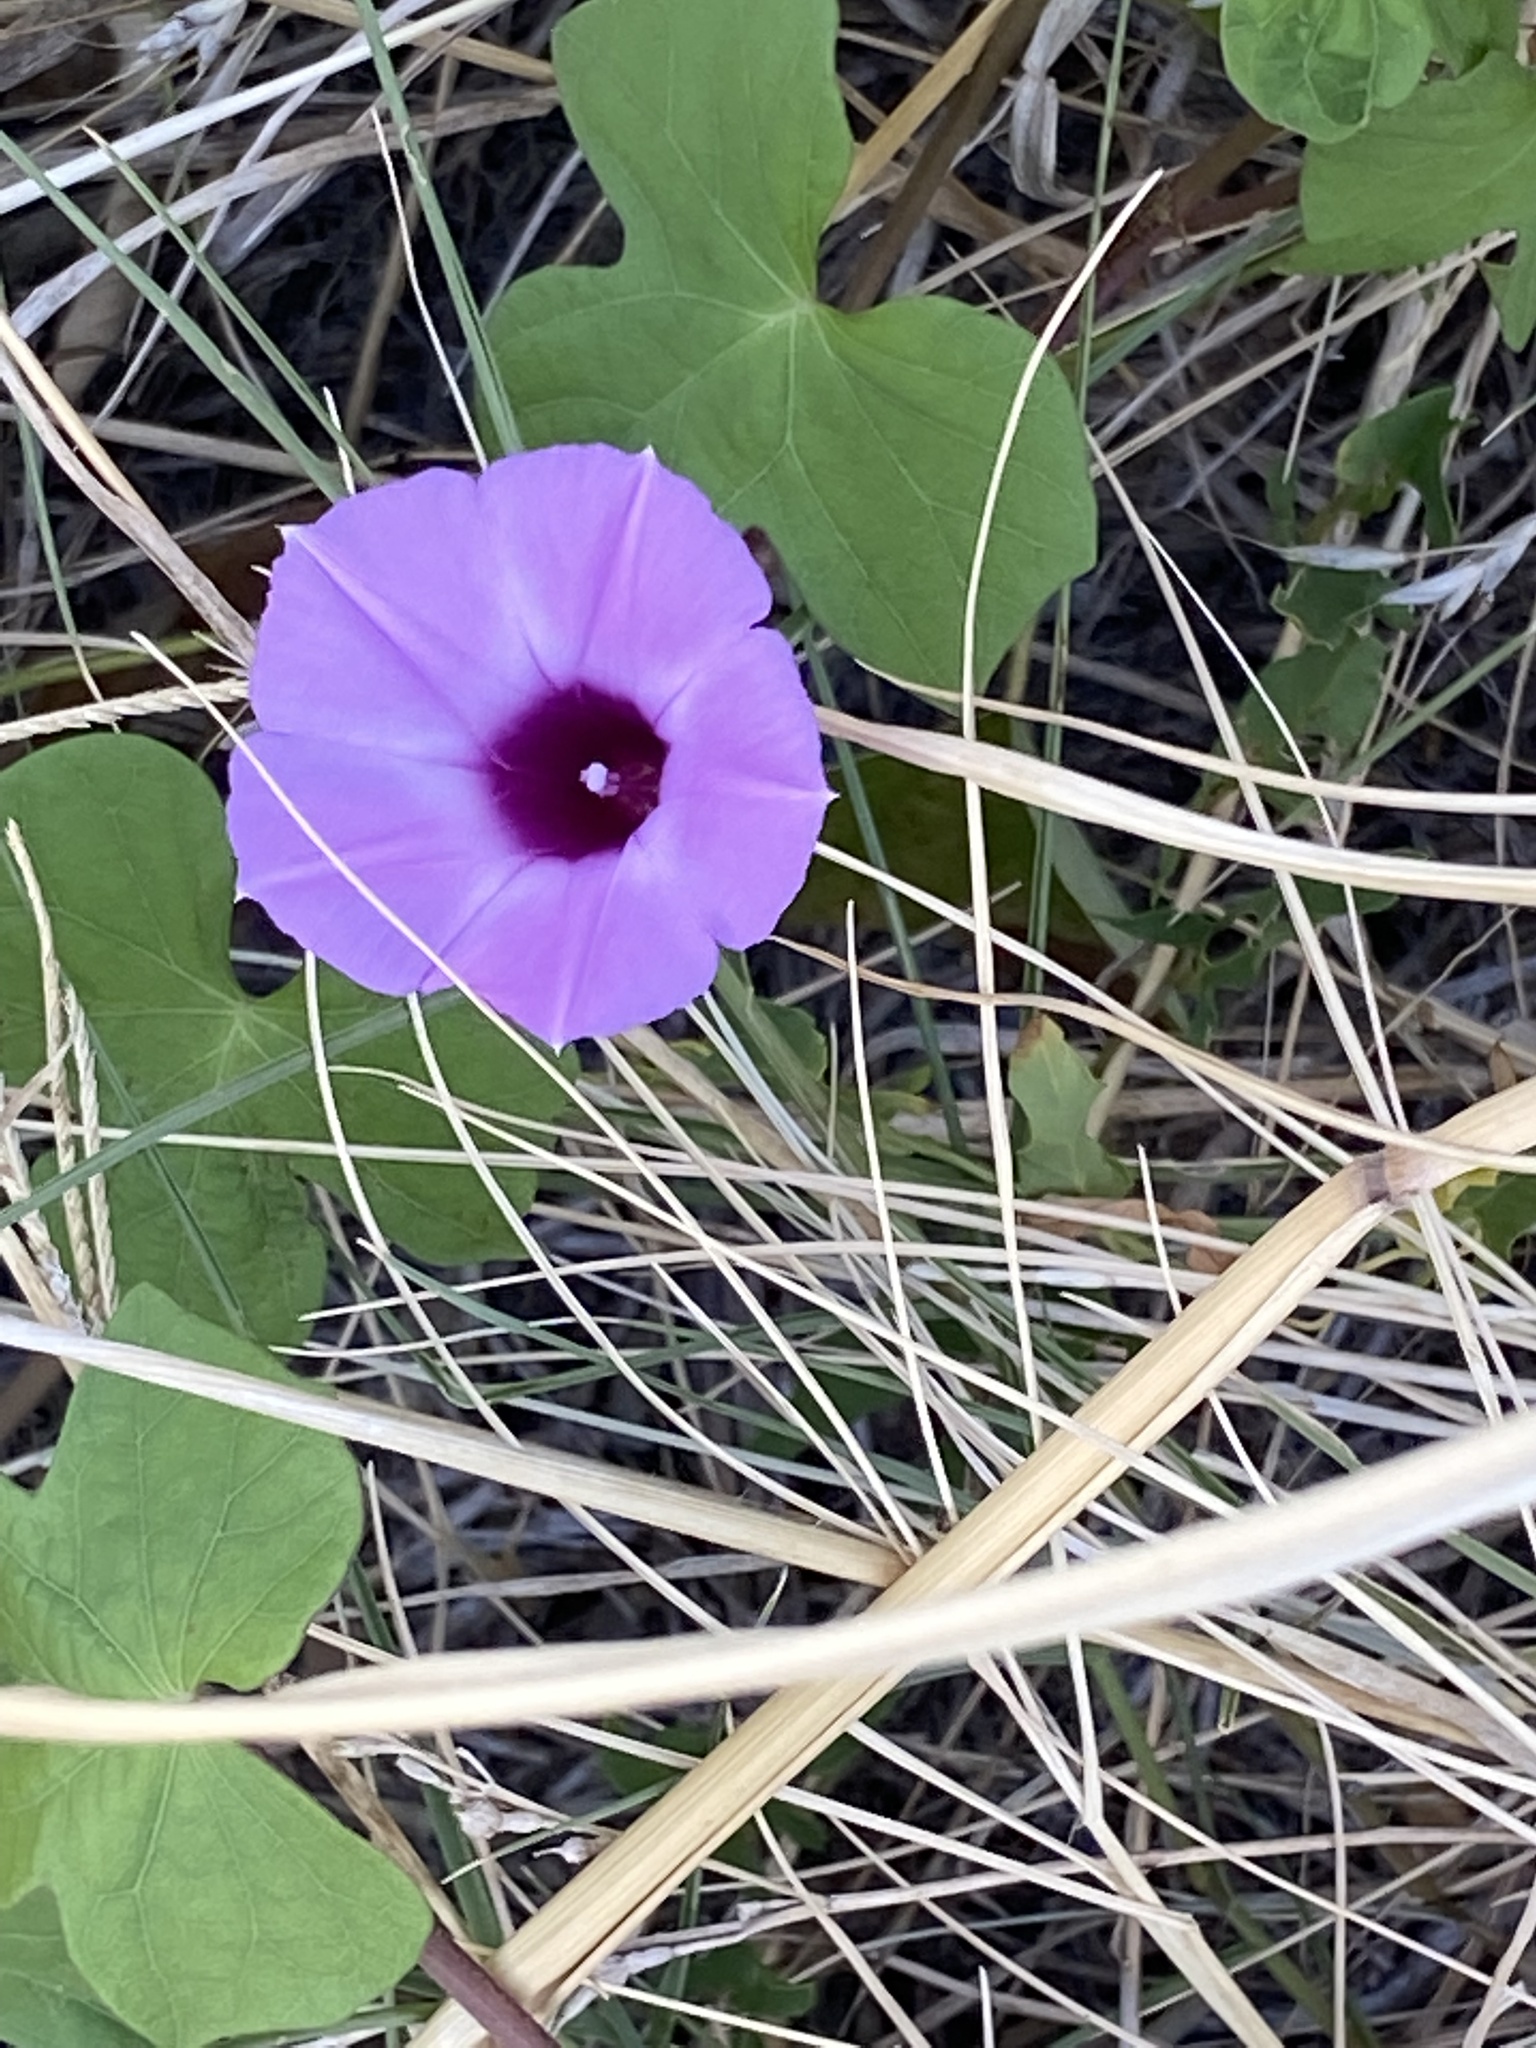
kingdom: Plantae
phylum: Tracheophyta
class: Magnoliopsida
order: Solanales
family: Convolvulaceae
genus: Ipomoea
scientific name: Ipomoea cordatotriloba
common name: Cotton morning glory
